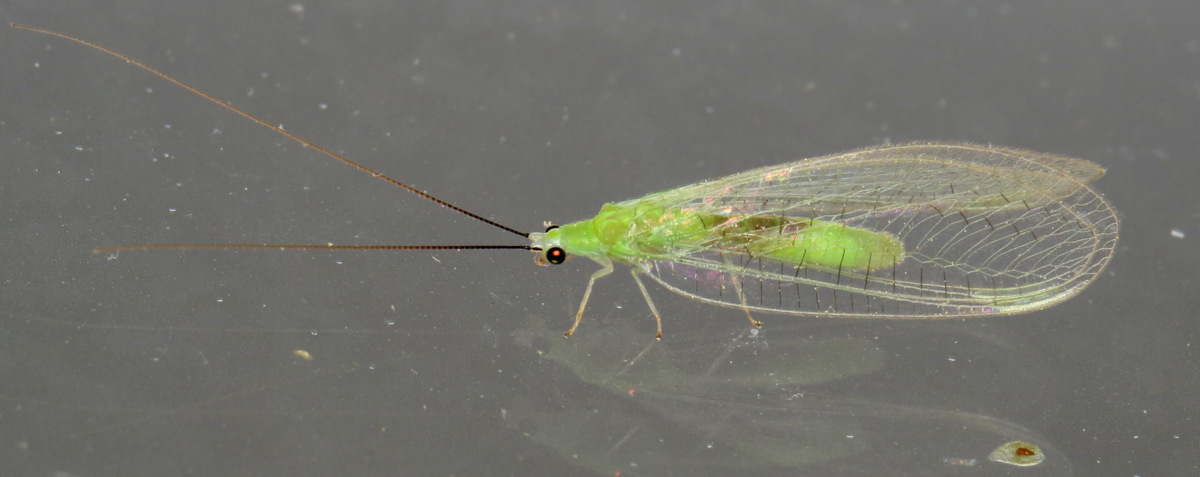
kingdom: Animalia
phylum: Arthropoda
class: Insecta
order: Neuroptera
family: Chrysopidae
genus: Ceraeochrysa
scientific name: Ceraeochrysa lineaticornis
